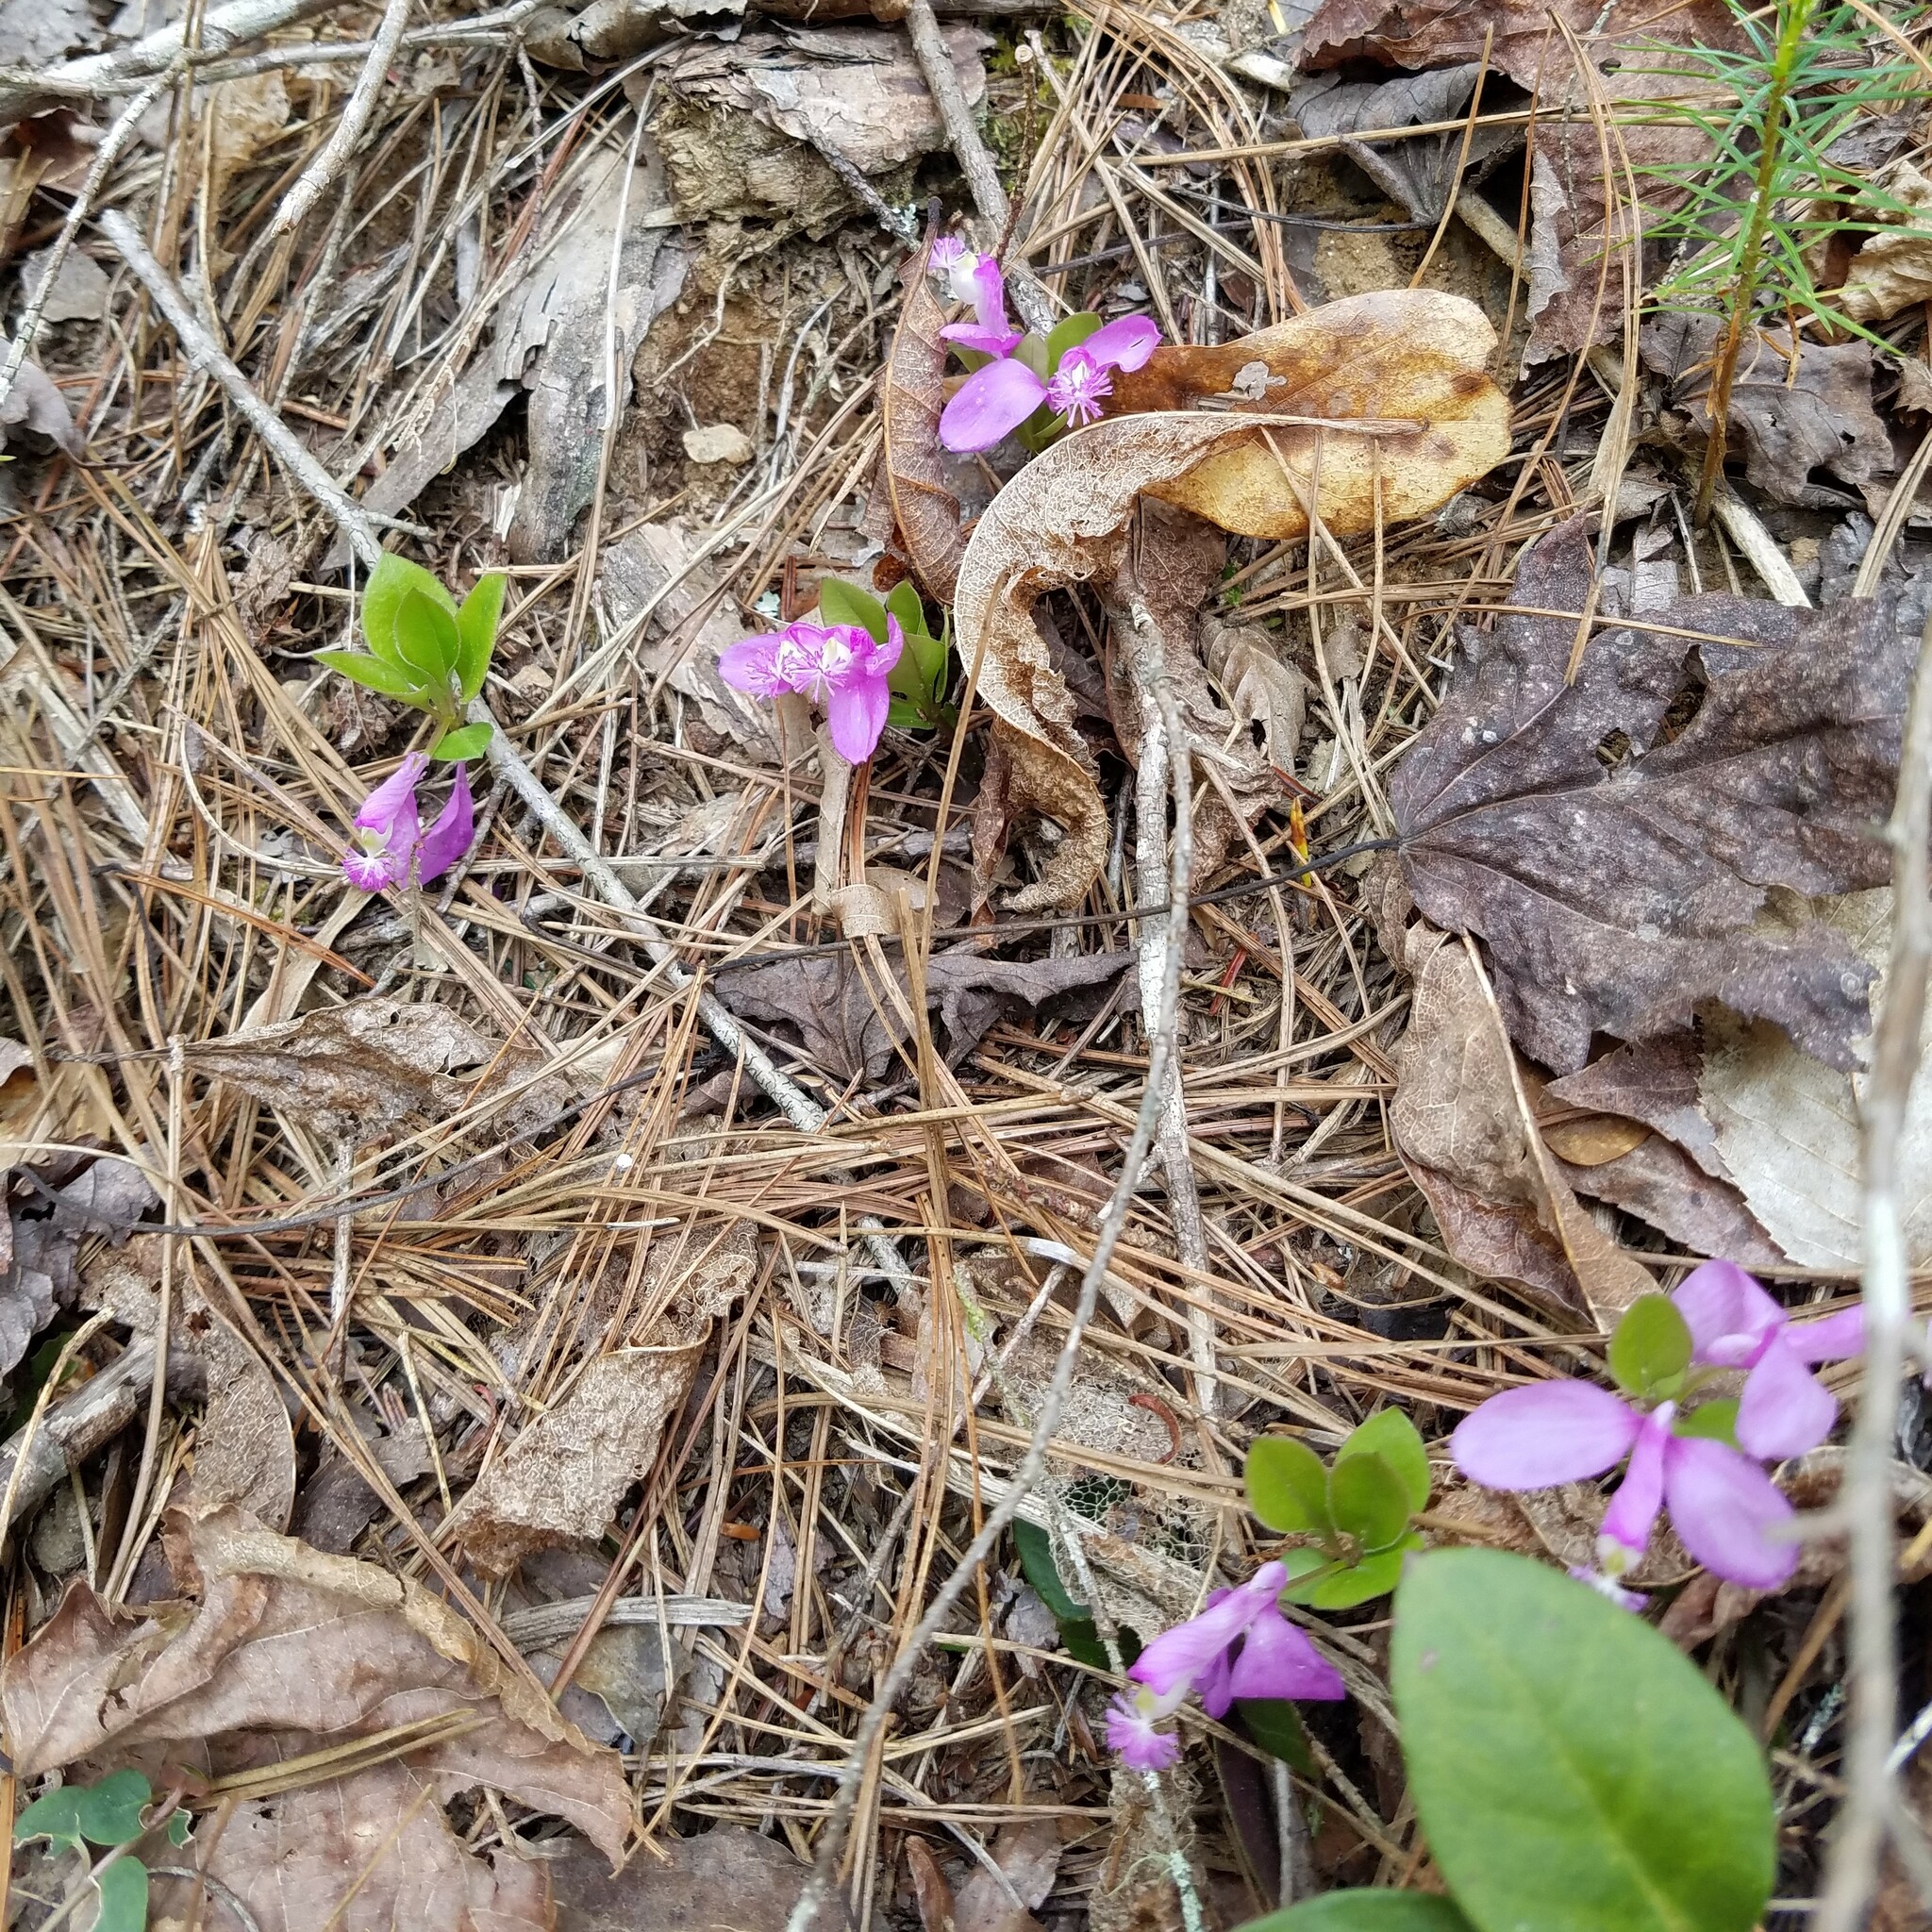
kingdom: Plantae
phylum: Tracheophyta
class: Magnoliopsida
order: Fabales
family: Polygalaceae
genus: Polygaloides
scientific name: Polygaloides paucifolia
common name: Bird-on-the-wing
